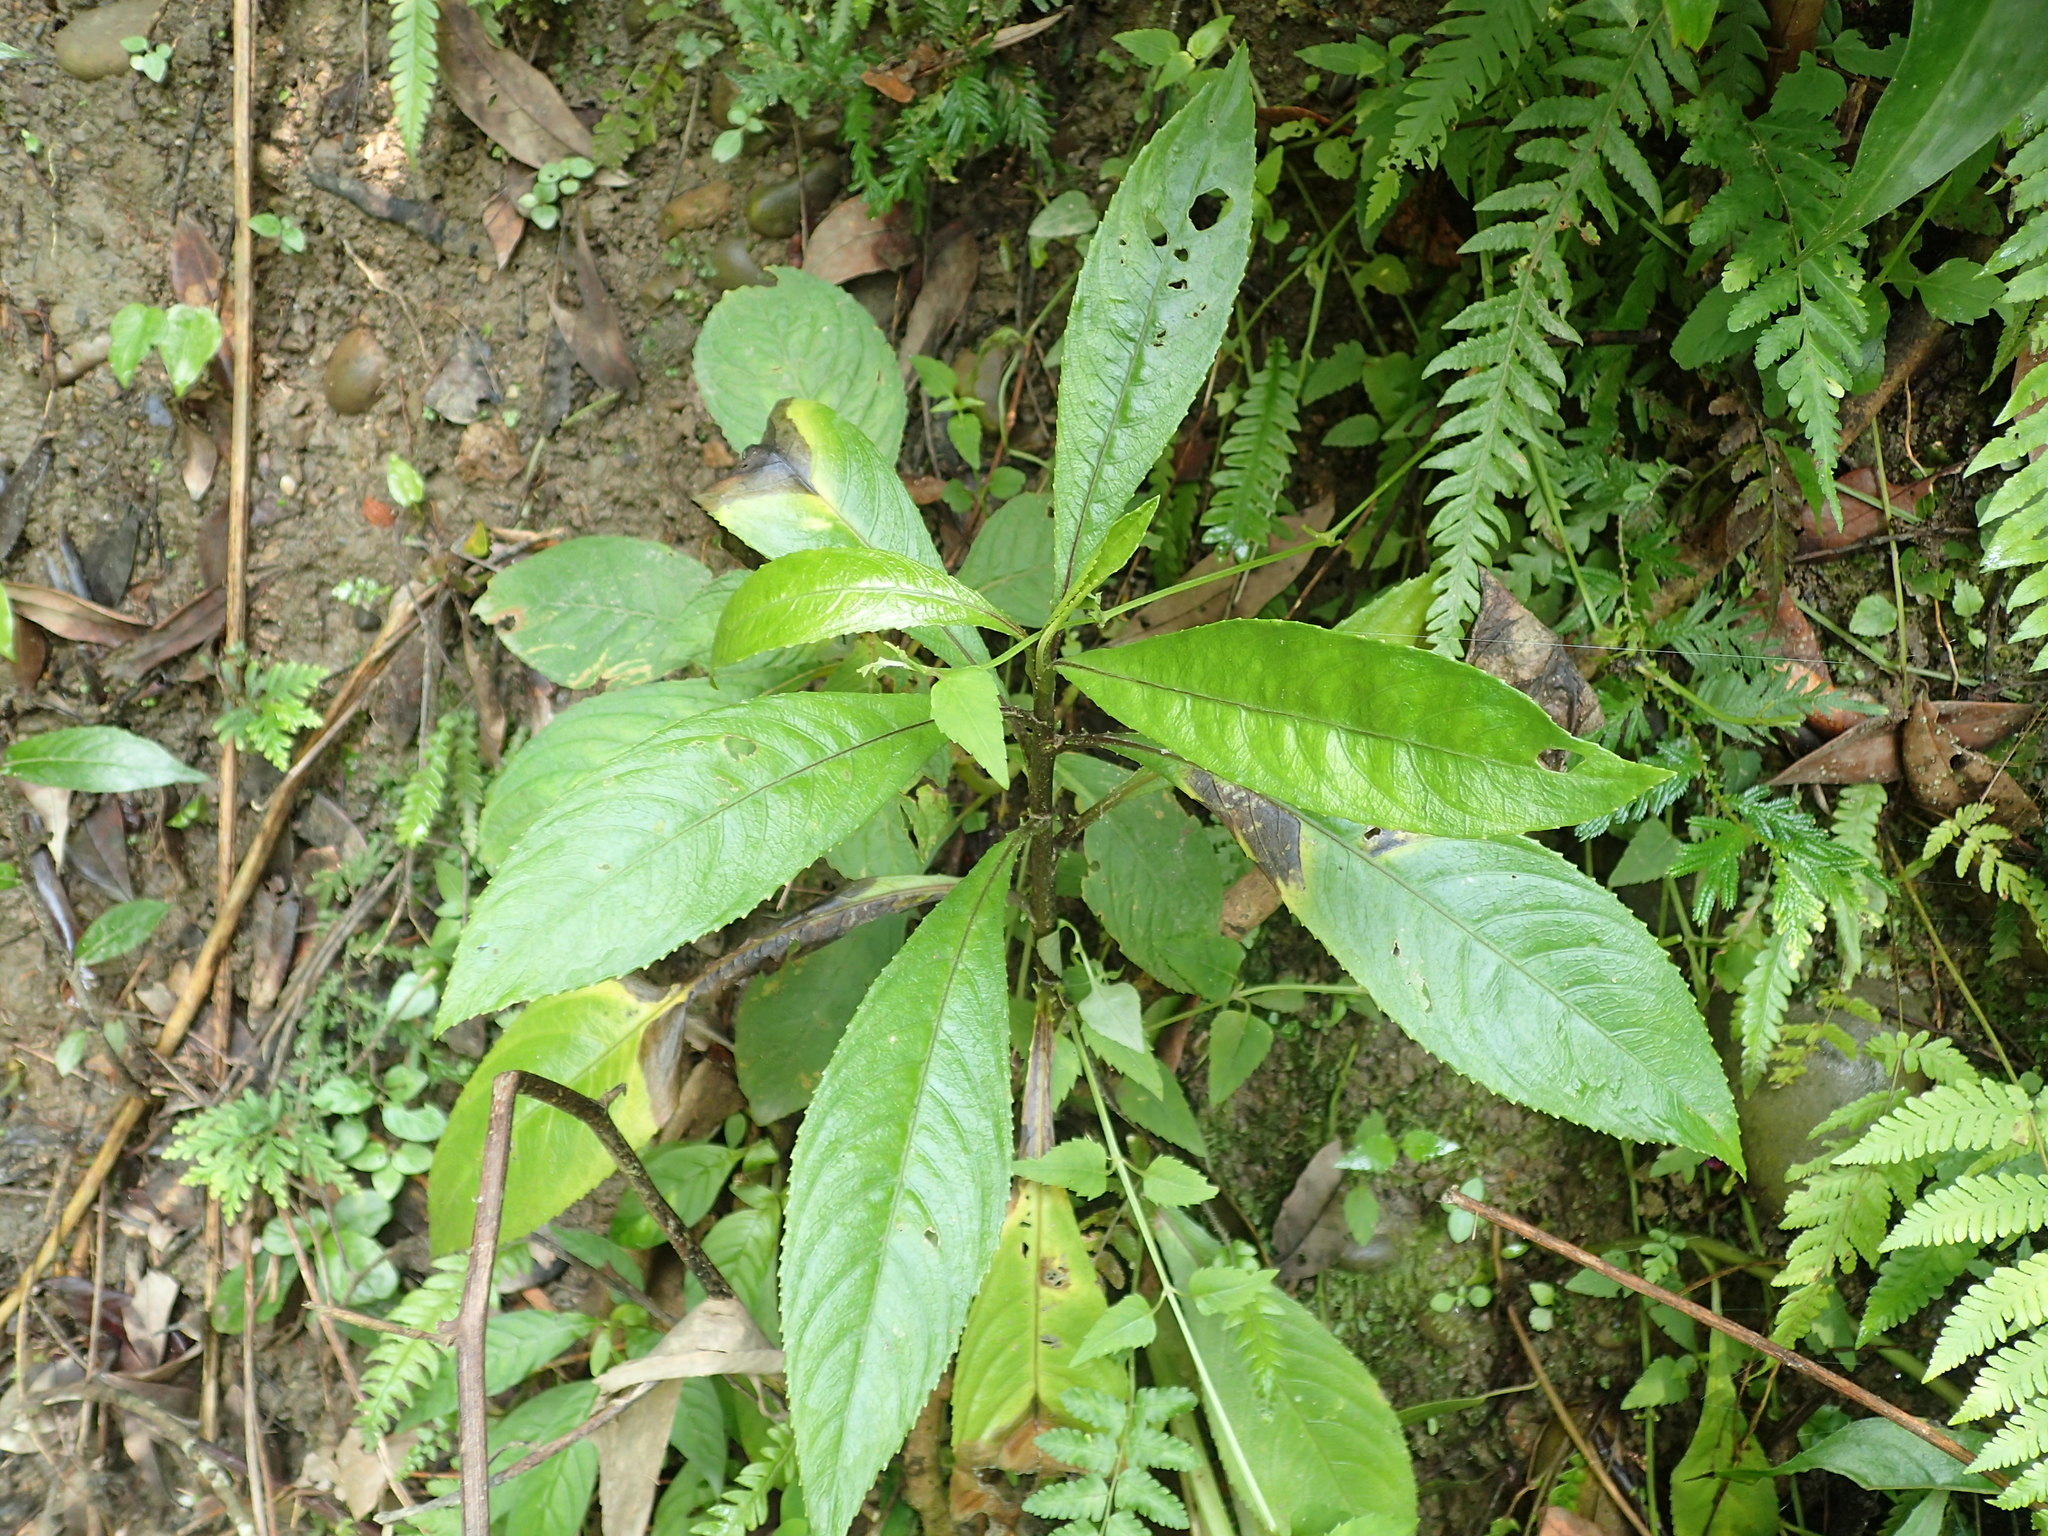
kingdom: Plantae
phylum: Tracheophyta
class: Magnoliopsida
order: Asterales
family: Asteraceae
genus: Blumea
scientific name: Blumea lanceolaria
